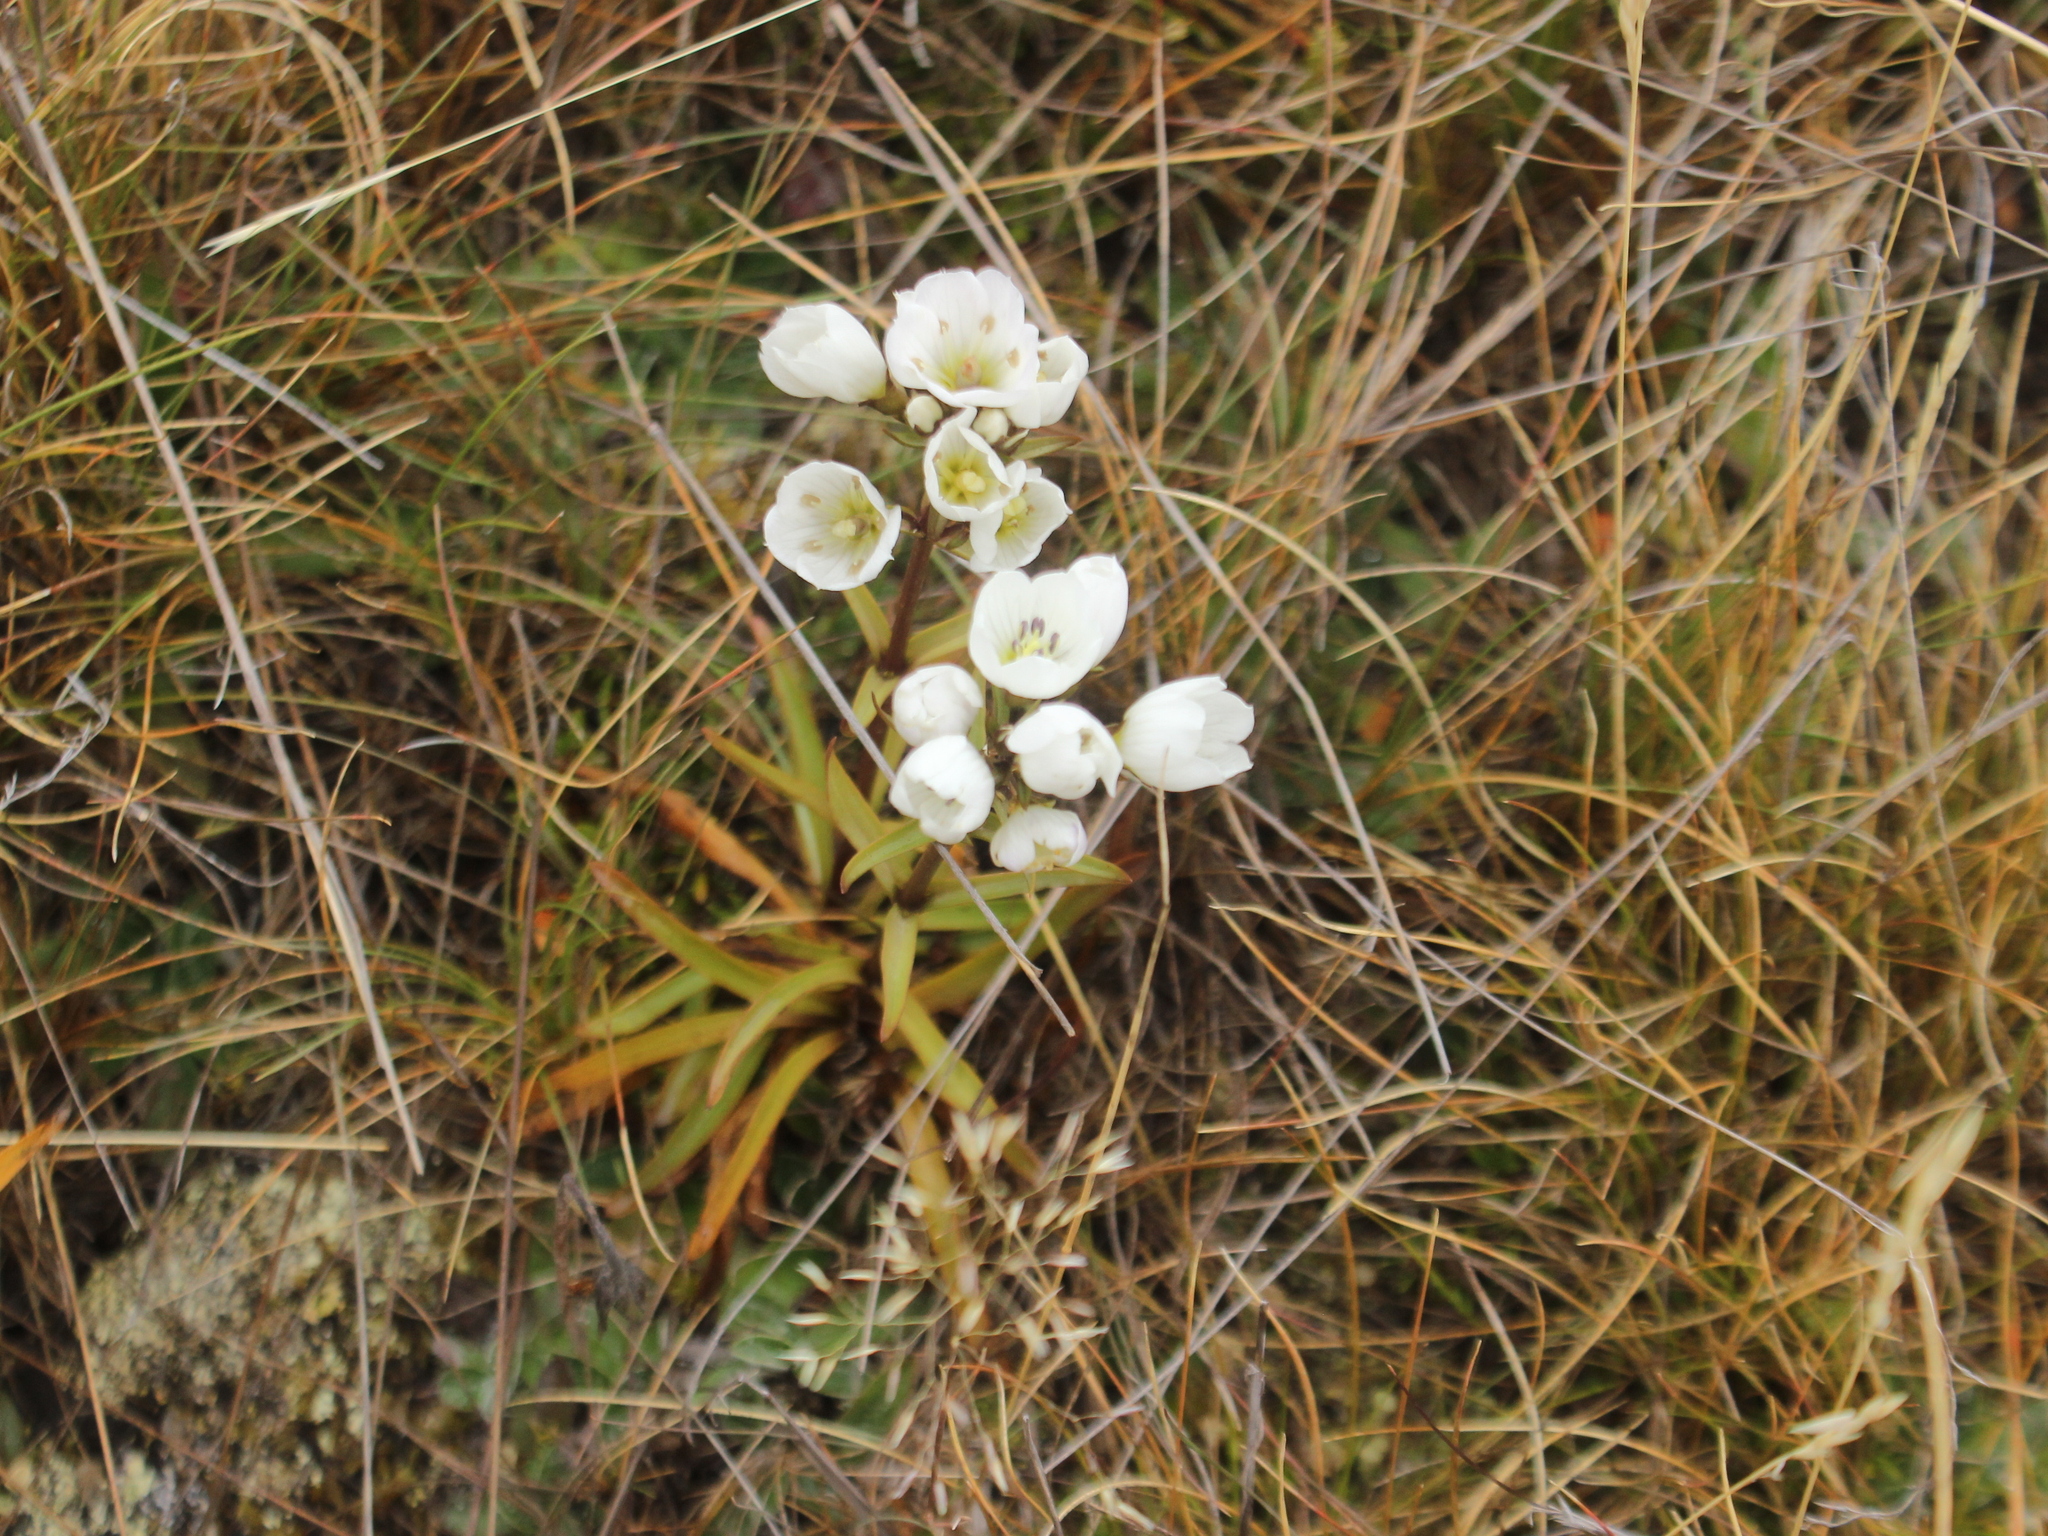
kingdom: Plantae
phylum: Tracheophyta
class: Magnoliopsida
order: Gentianales
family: Gentianaceae
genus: Gentianella
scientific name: Gentianella corymbifera
